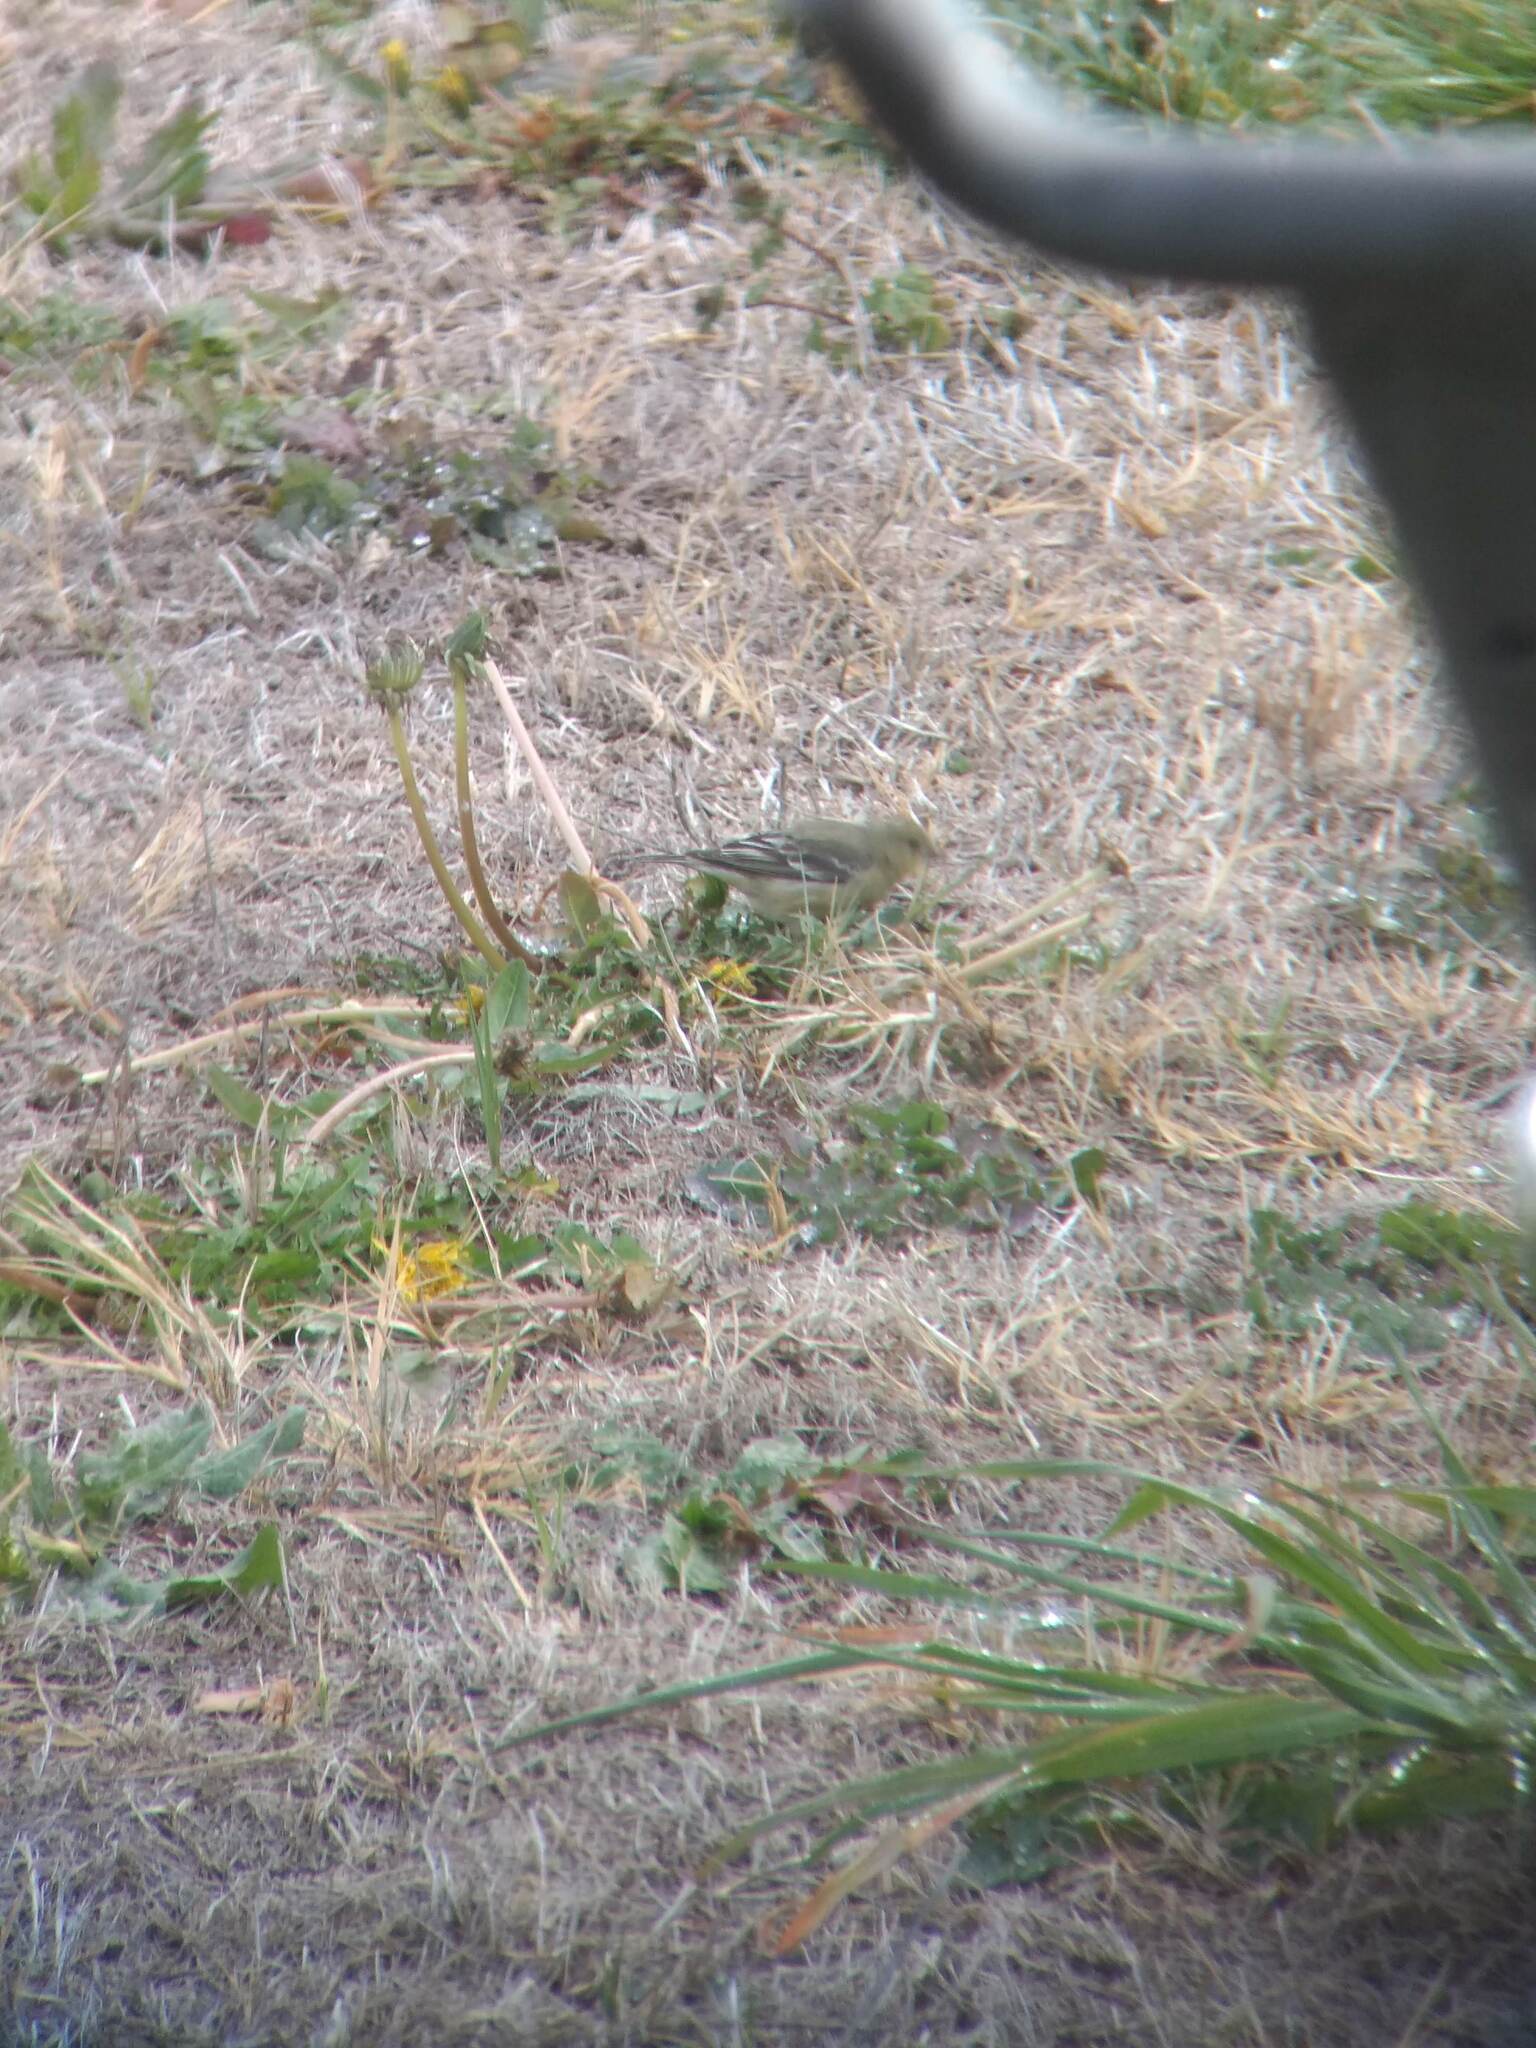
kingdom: Animalia
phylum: Chordata
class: Aves
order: Passeriformes
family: Fringillidae
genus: Spinus
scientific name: Spinus psaltria
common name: Lesser goldfinch
